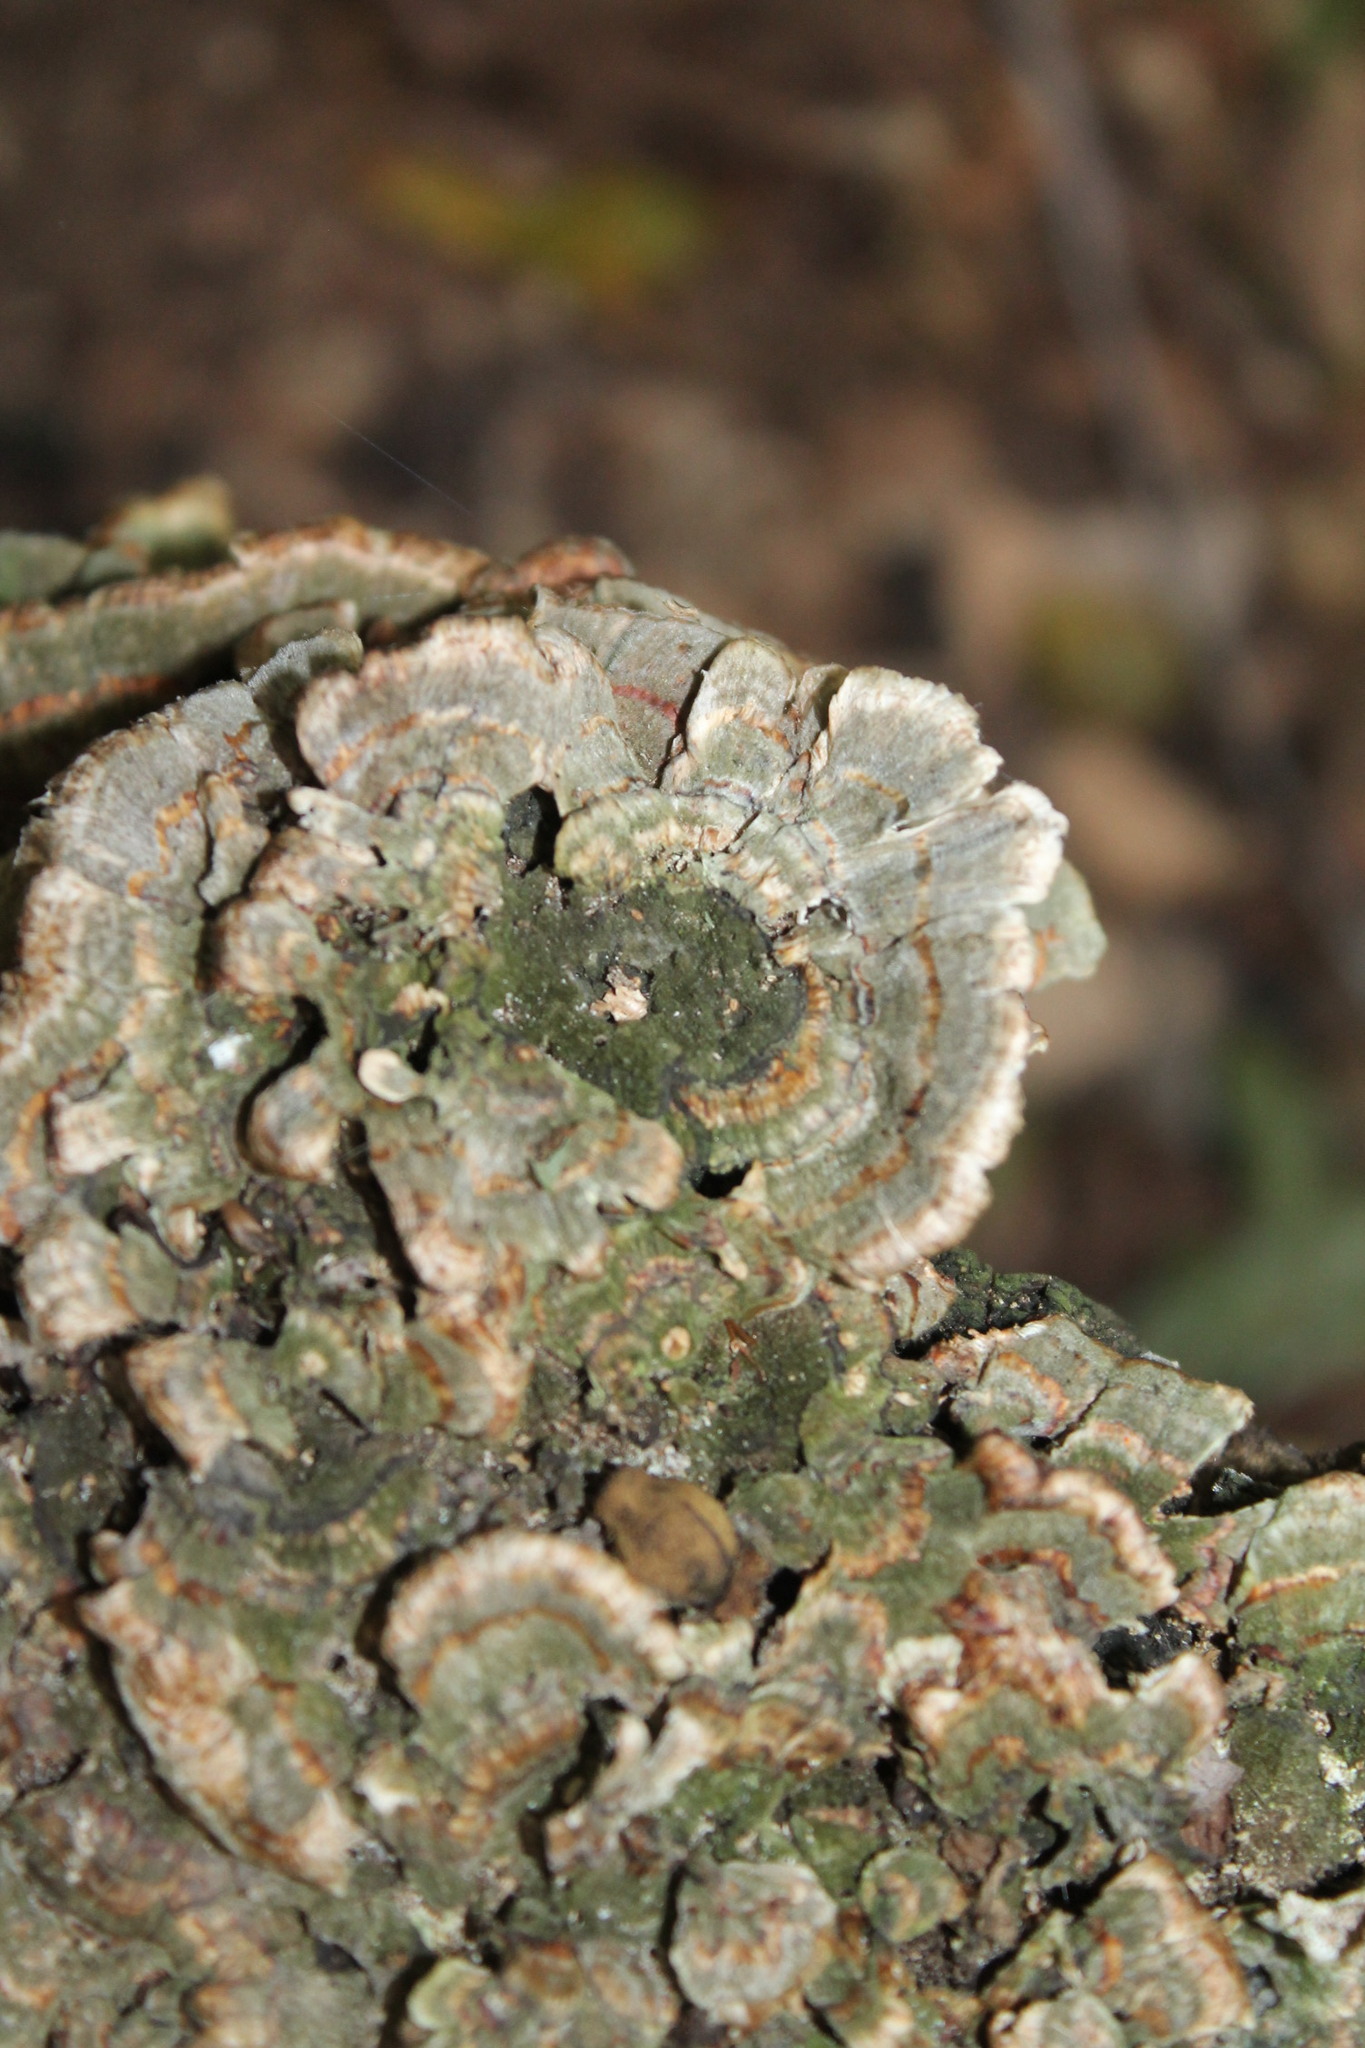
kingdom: Fungi
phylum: Basidiomycota
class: Agaricomycetes
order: Polyporales
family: Polyporaceae
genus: Trametes
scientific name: Trametes versicolor
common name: Turkeytail
